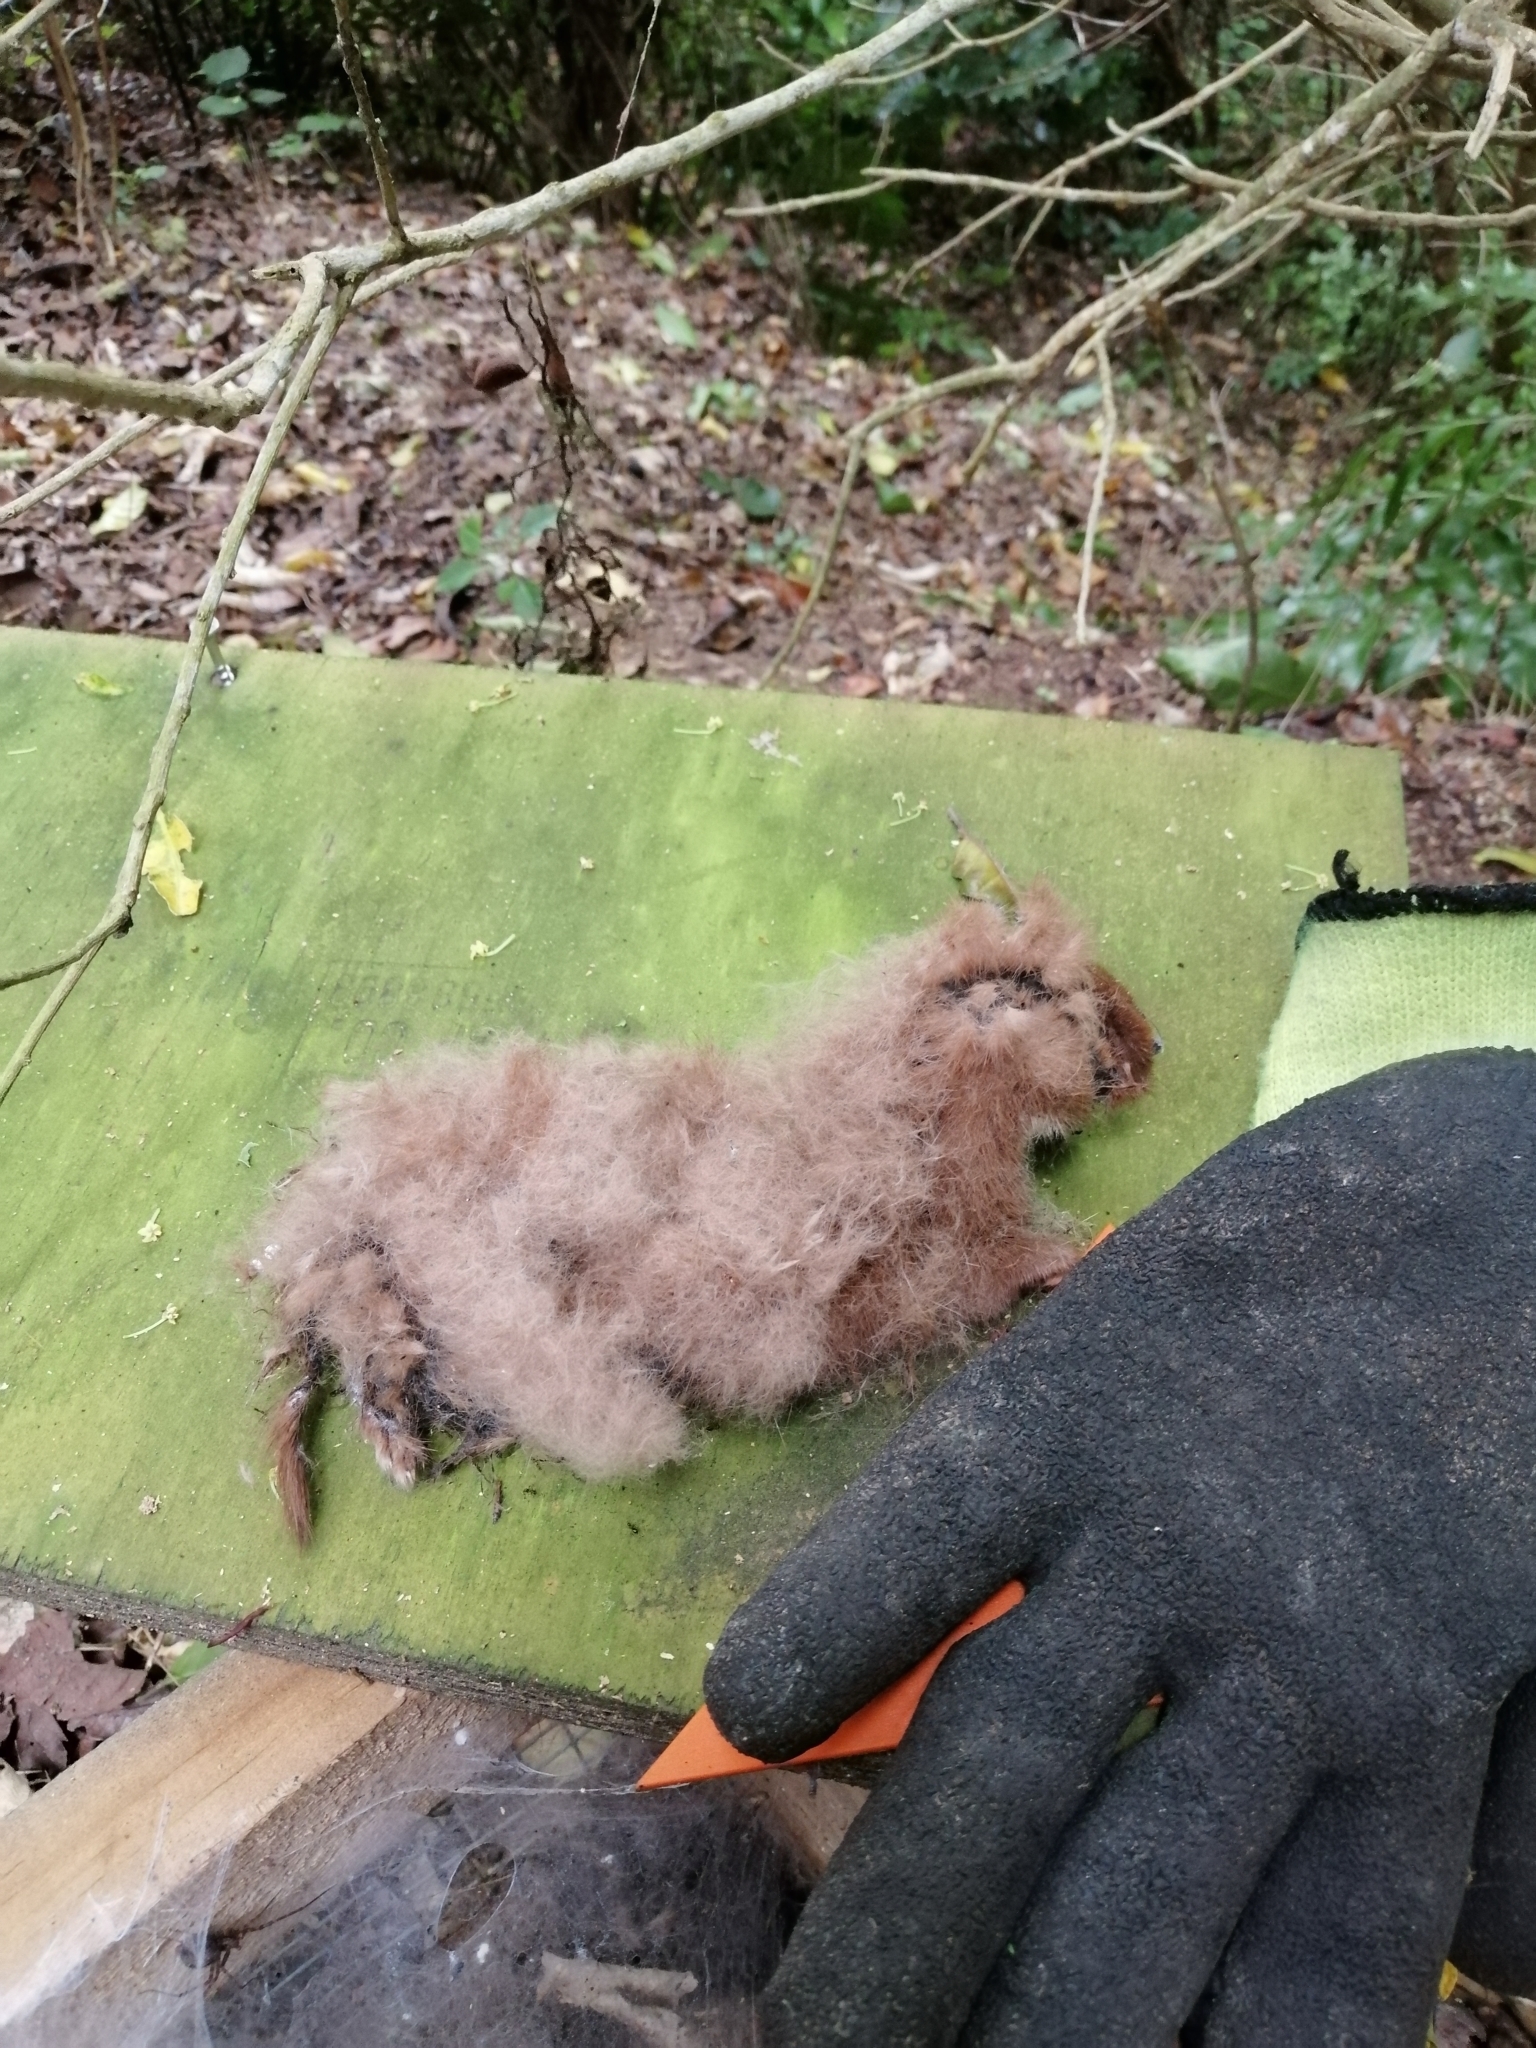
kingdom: Animalia
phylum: Chordata
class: Mammalia
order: Carnivora
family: Mustelidae
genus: Mustela
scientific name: Mustela nivalis
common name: Least weasel
